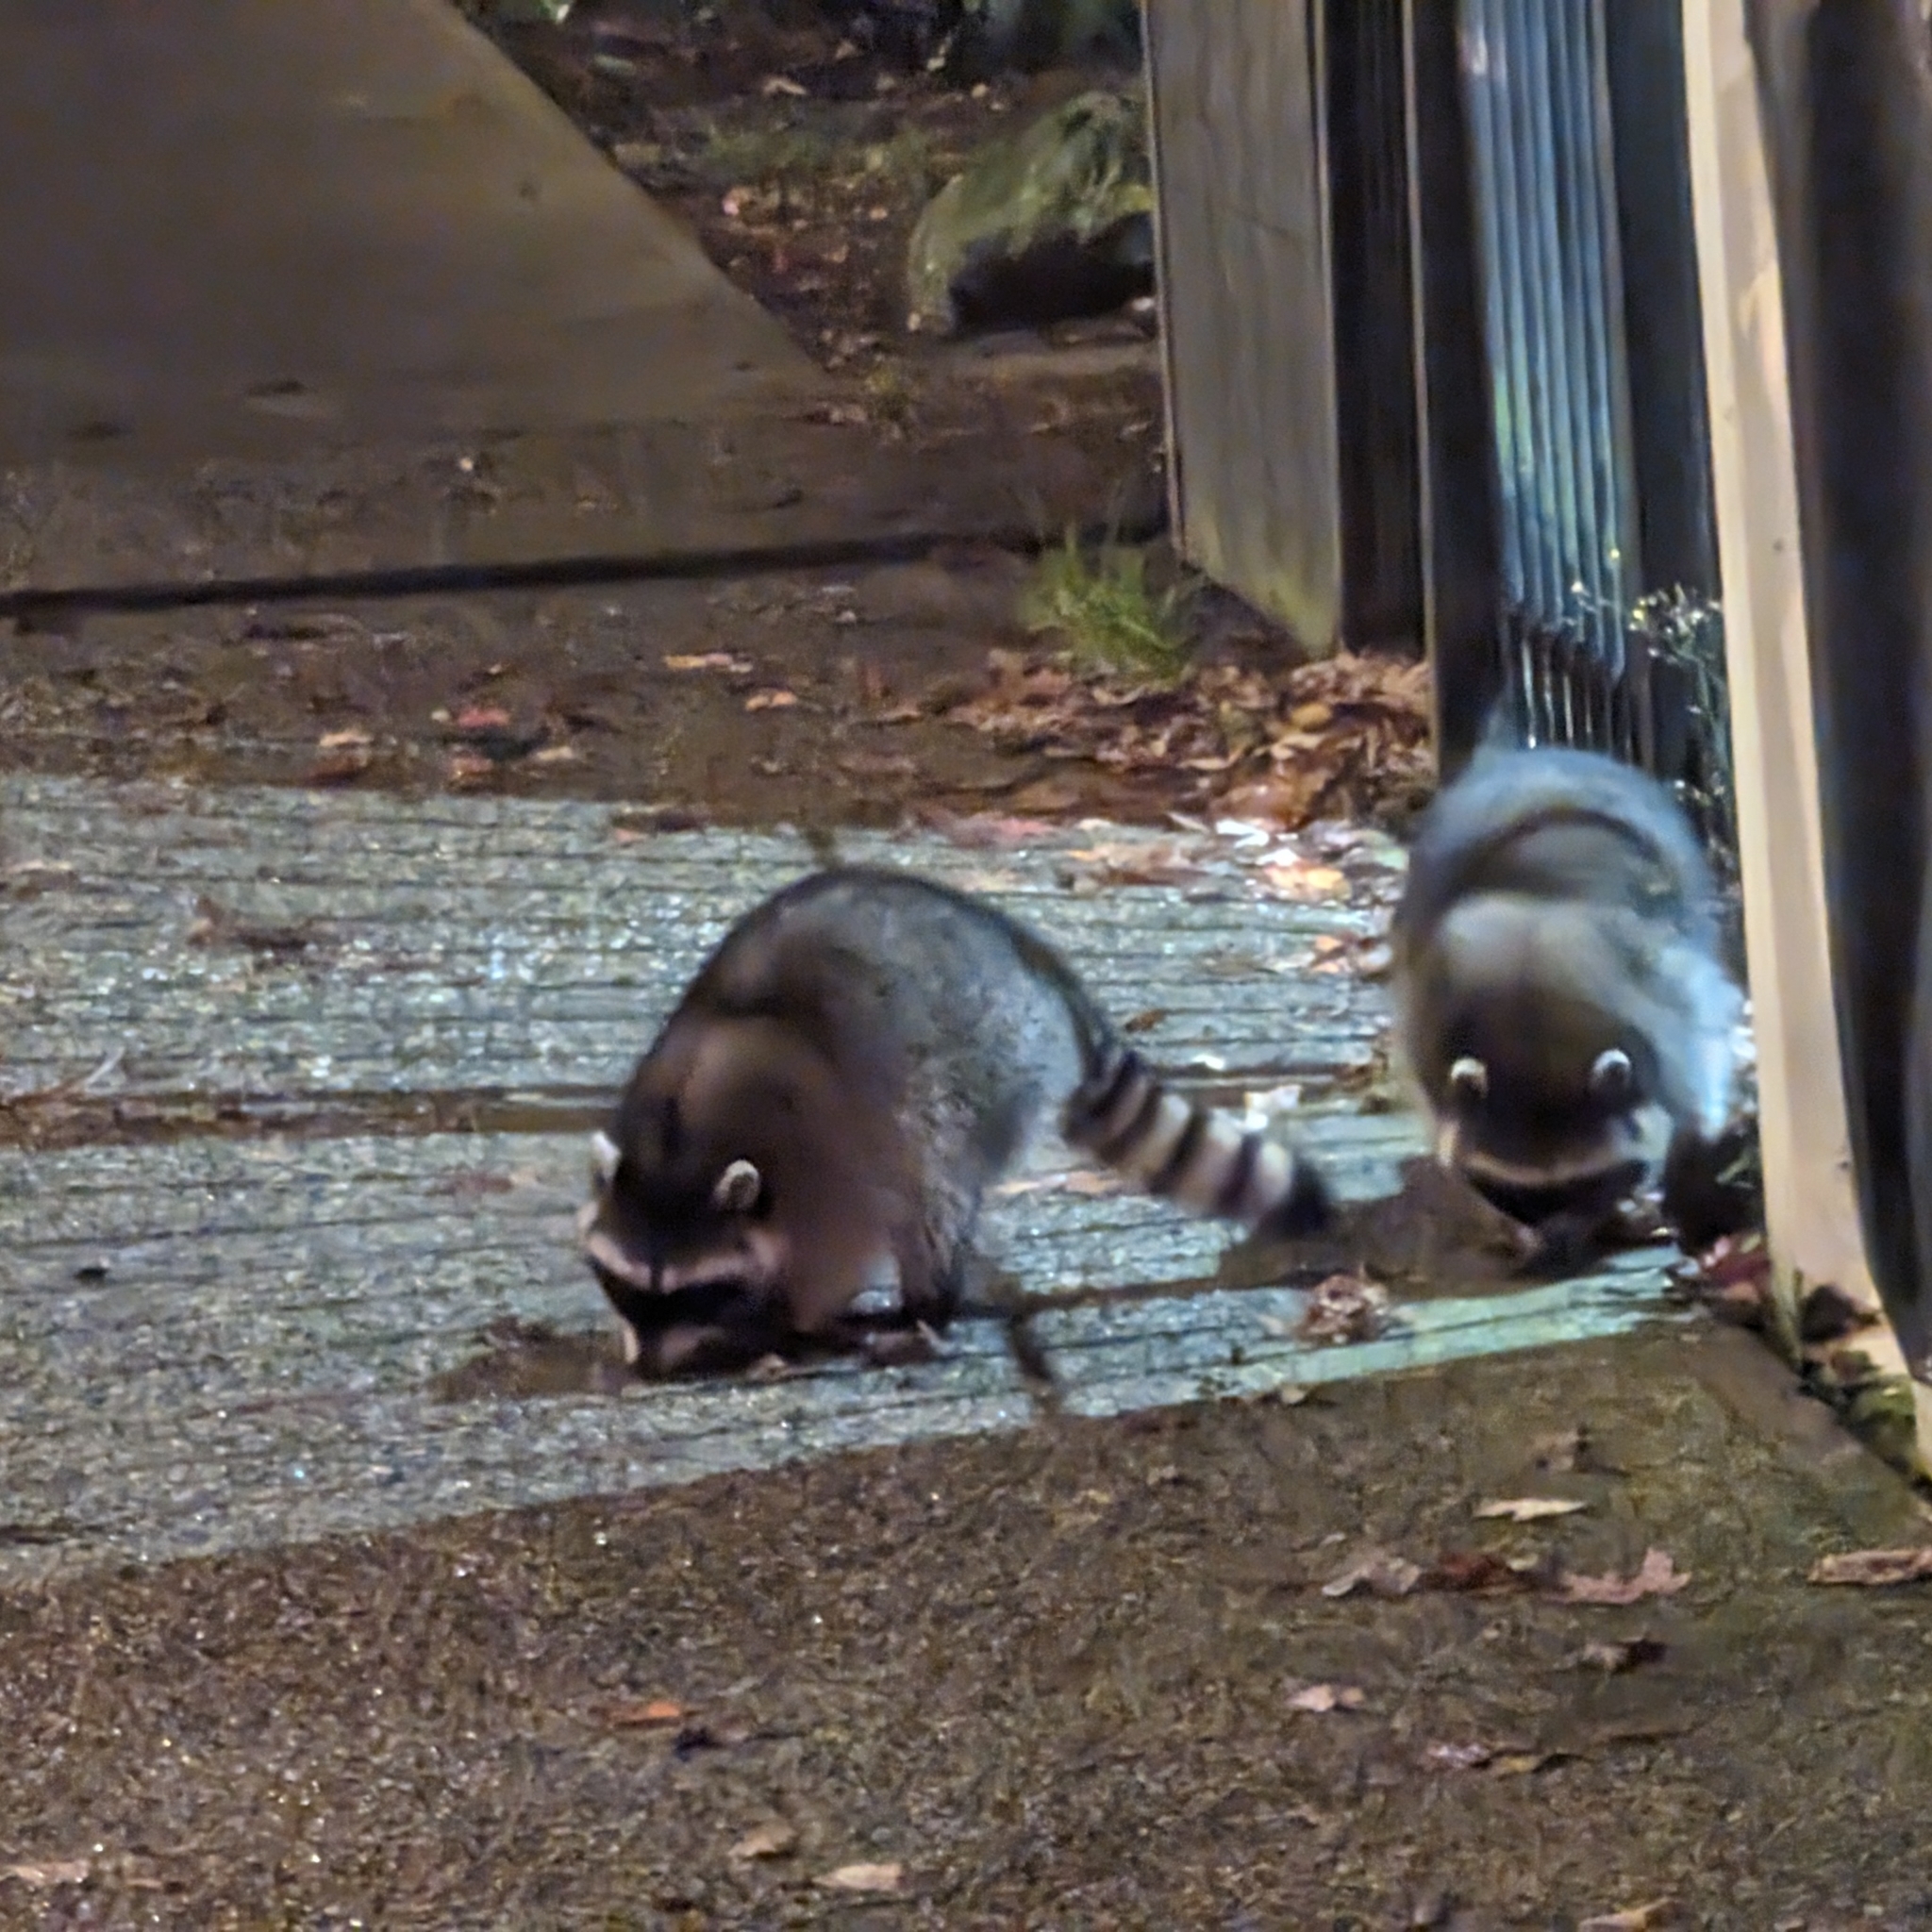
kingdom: Animalia
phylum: Chordata
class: Mammalia
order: Carnivora
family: Procyonidae
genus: Procyon
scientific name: Procyon lotor
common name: Raccoon
